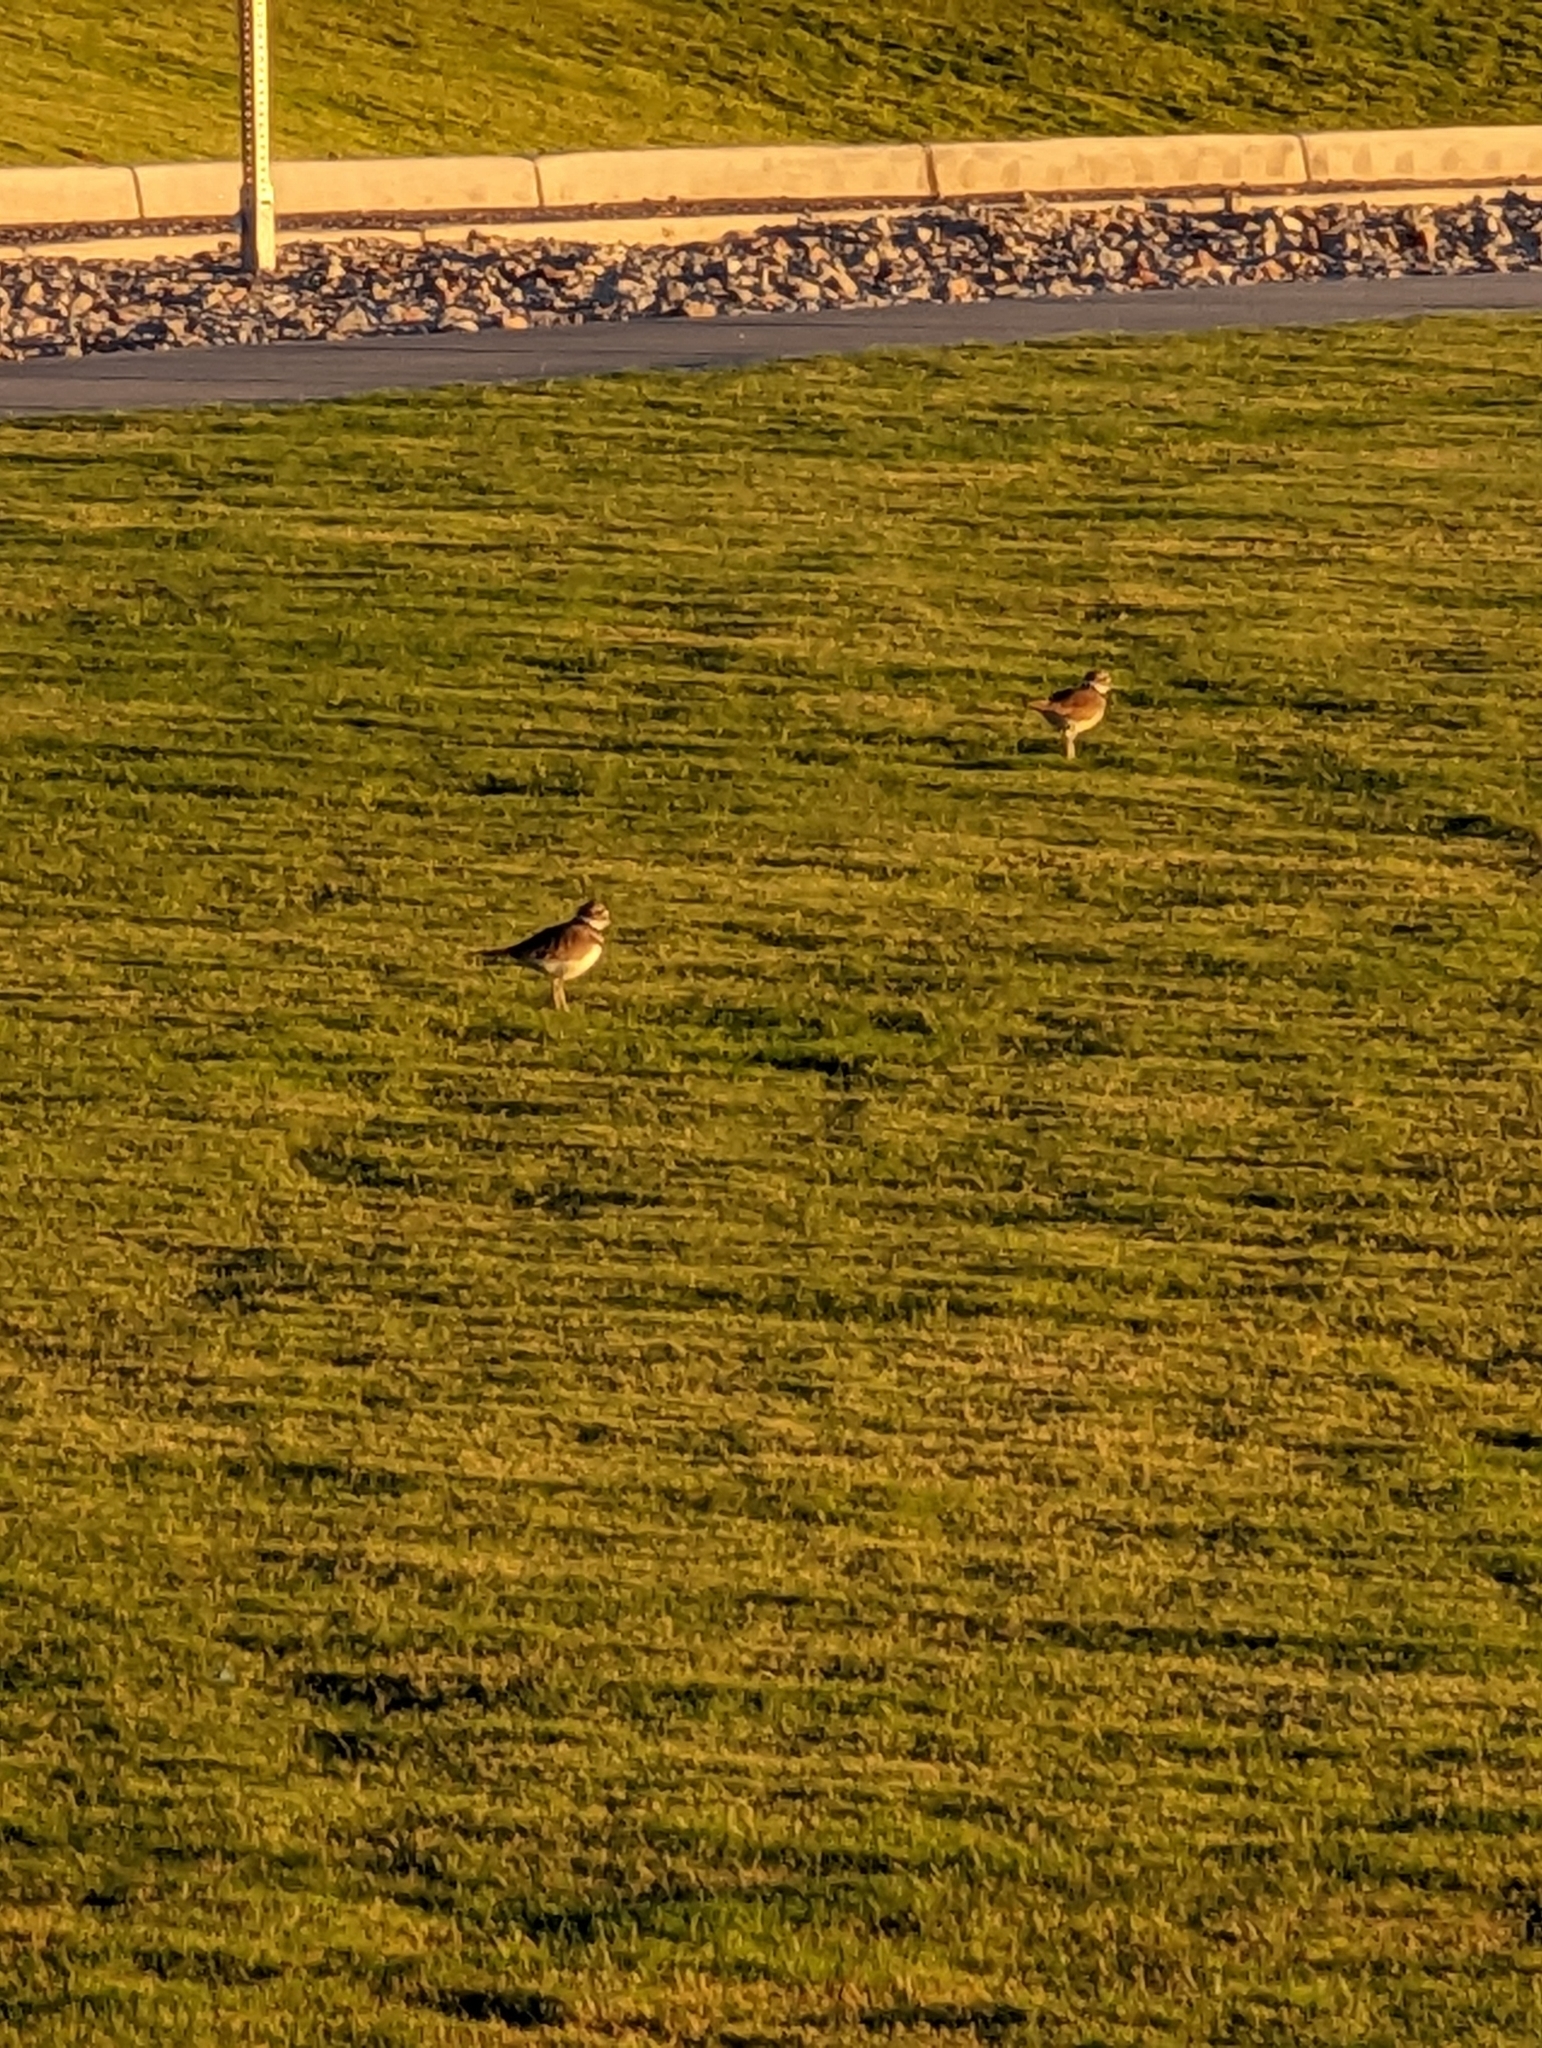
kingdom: Animalia
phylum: Chordata
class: Aves
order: Charadriiformes
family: Charadriidae
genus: Charadrius
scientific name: Charadrius vociferus
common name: Killdeer
